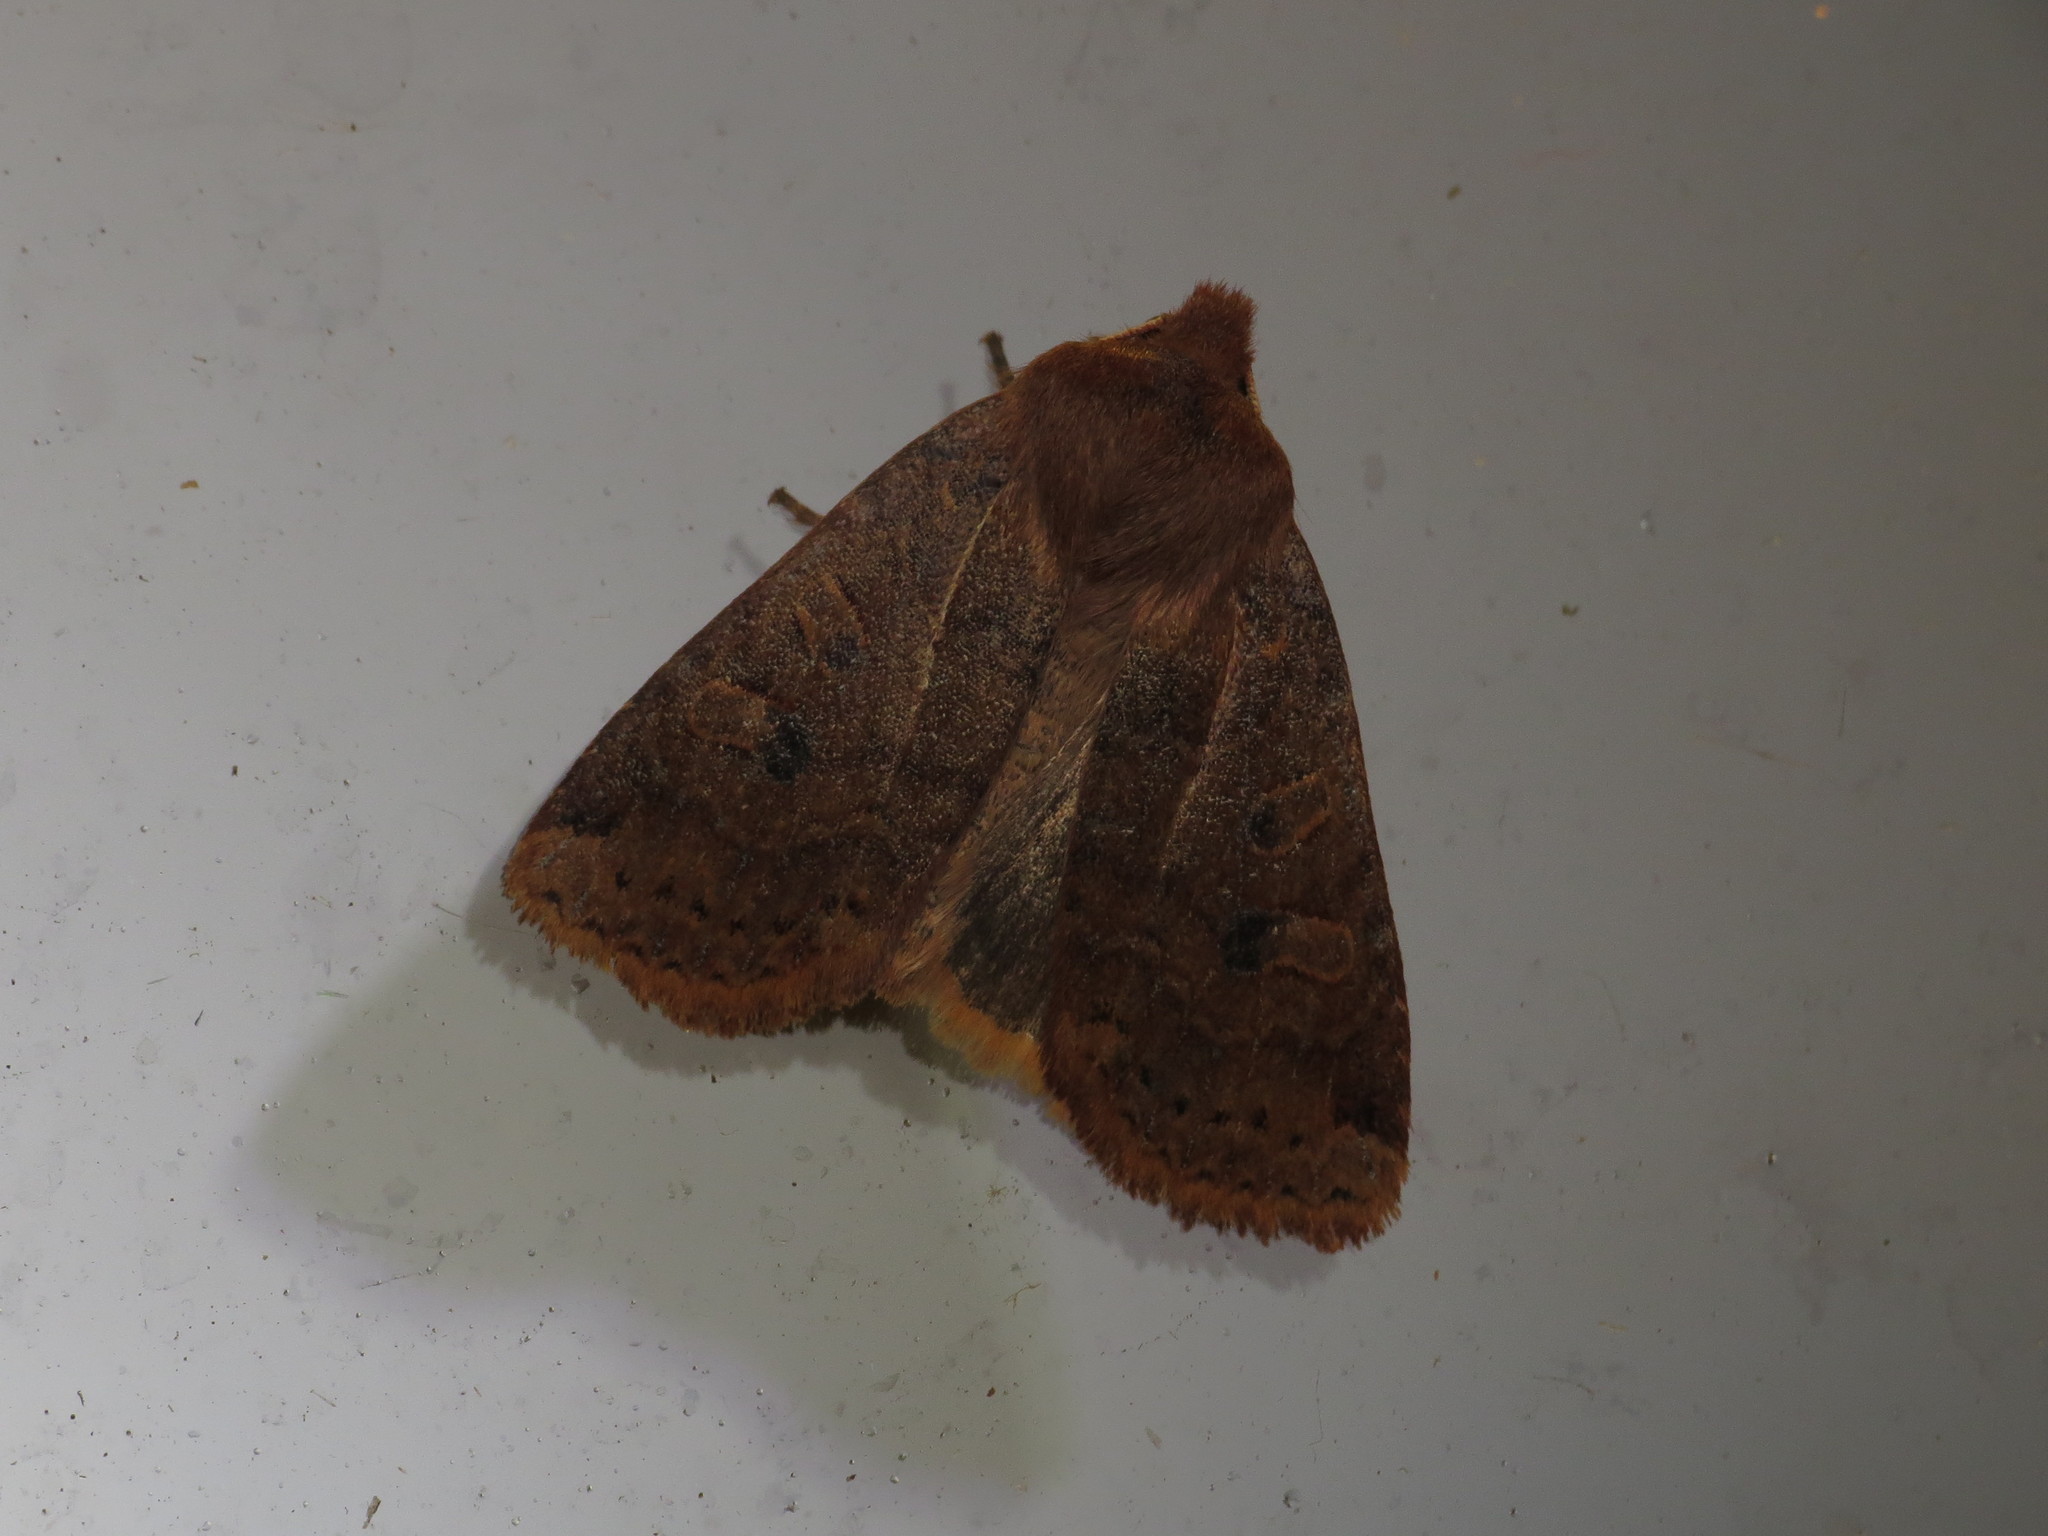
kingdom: Animalia
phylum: Arthropoda
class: Insecta
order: Lepidoptera
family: Noctuidae
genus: Conistra
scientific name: Conistra vaccinii
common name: Chestnut
